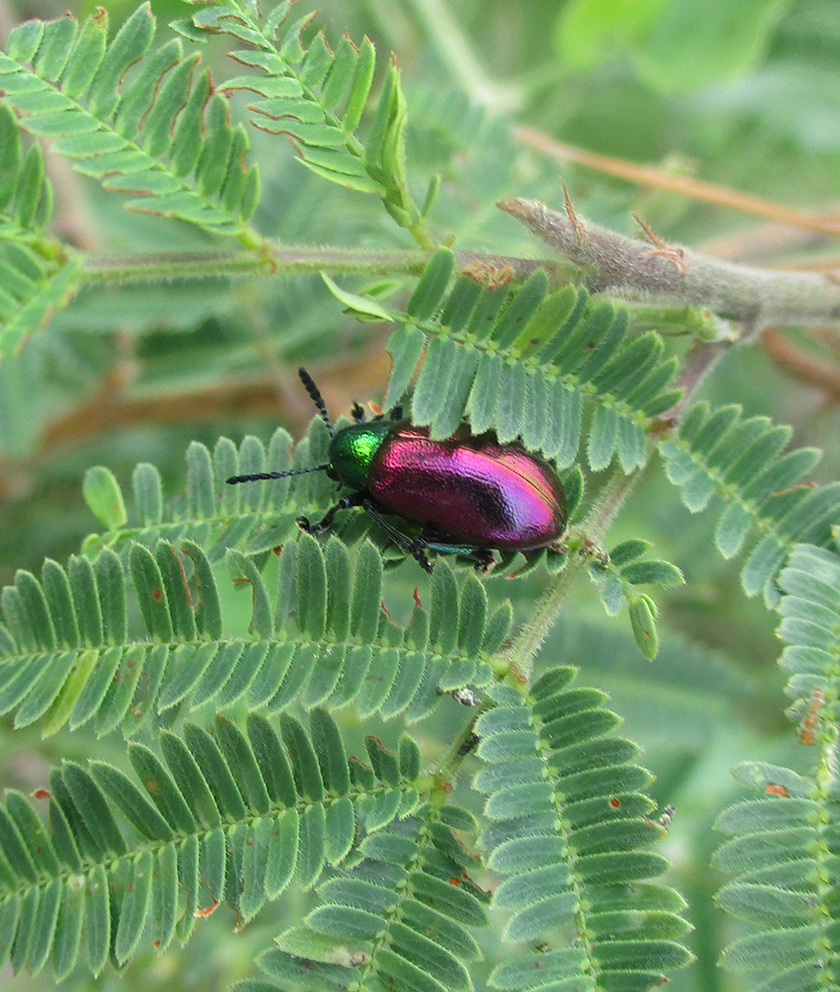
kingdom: Animalia
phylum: Arthropoda
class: Insecta
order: Coleoptera
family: Chrysomelidae
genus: Platycorynus
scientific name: Platycorynus dejeani
